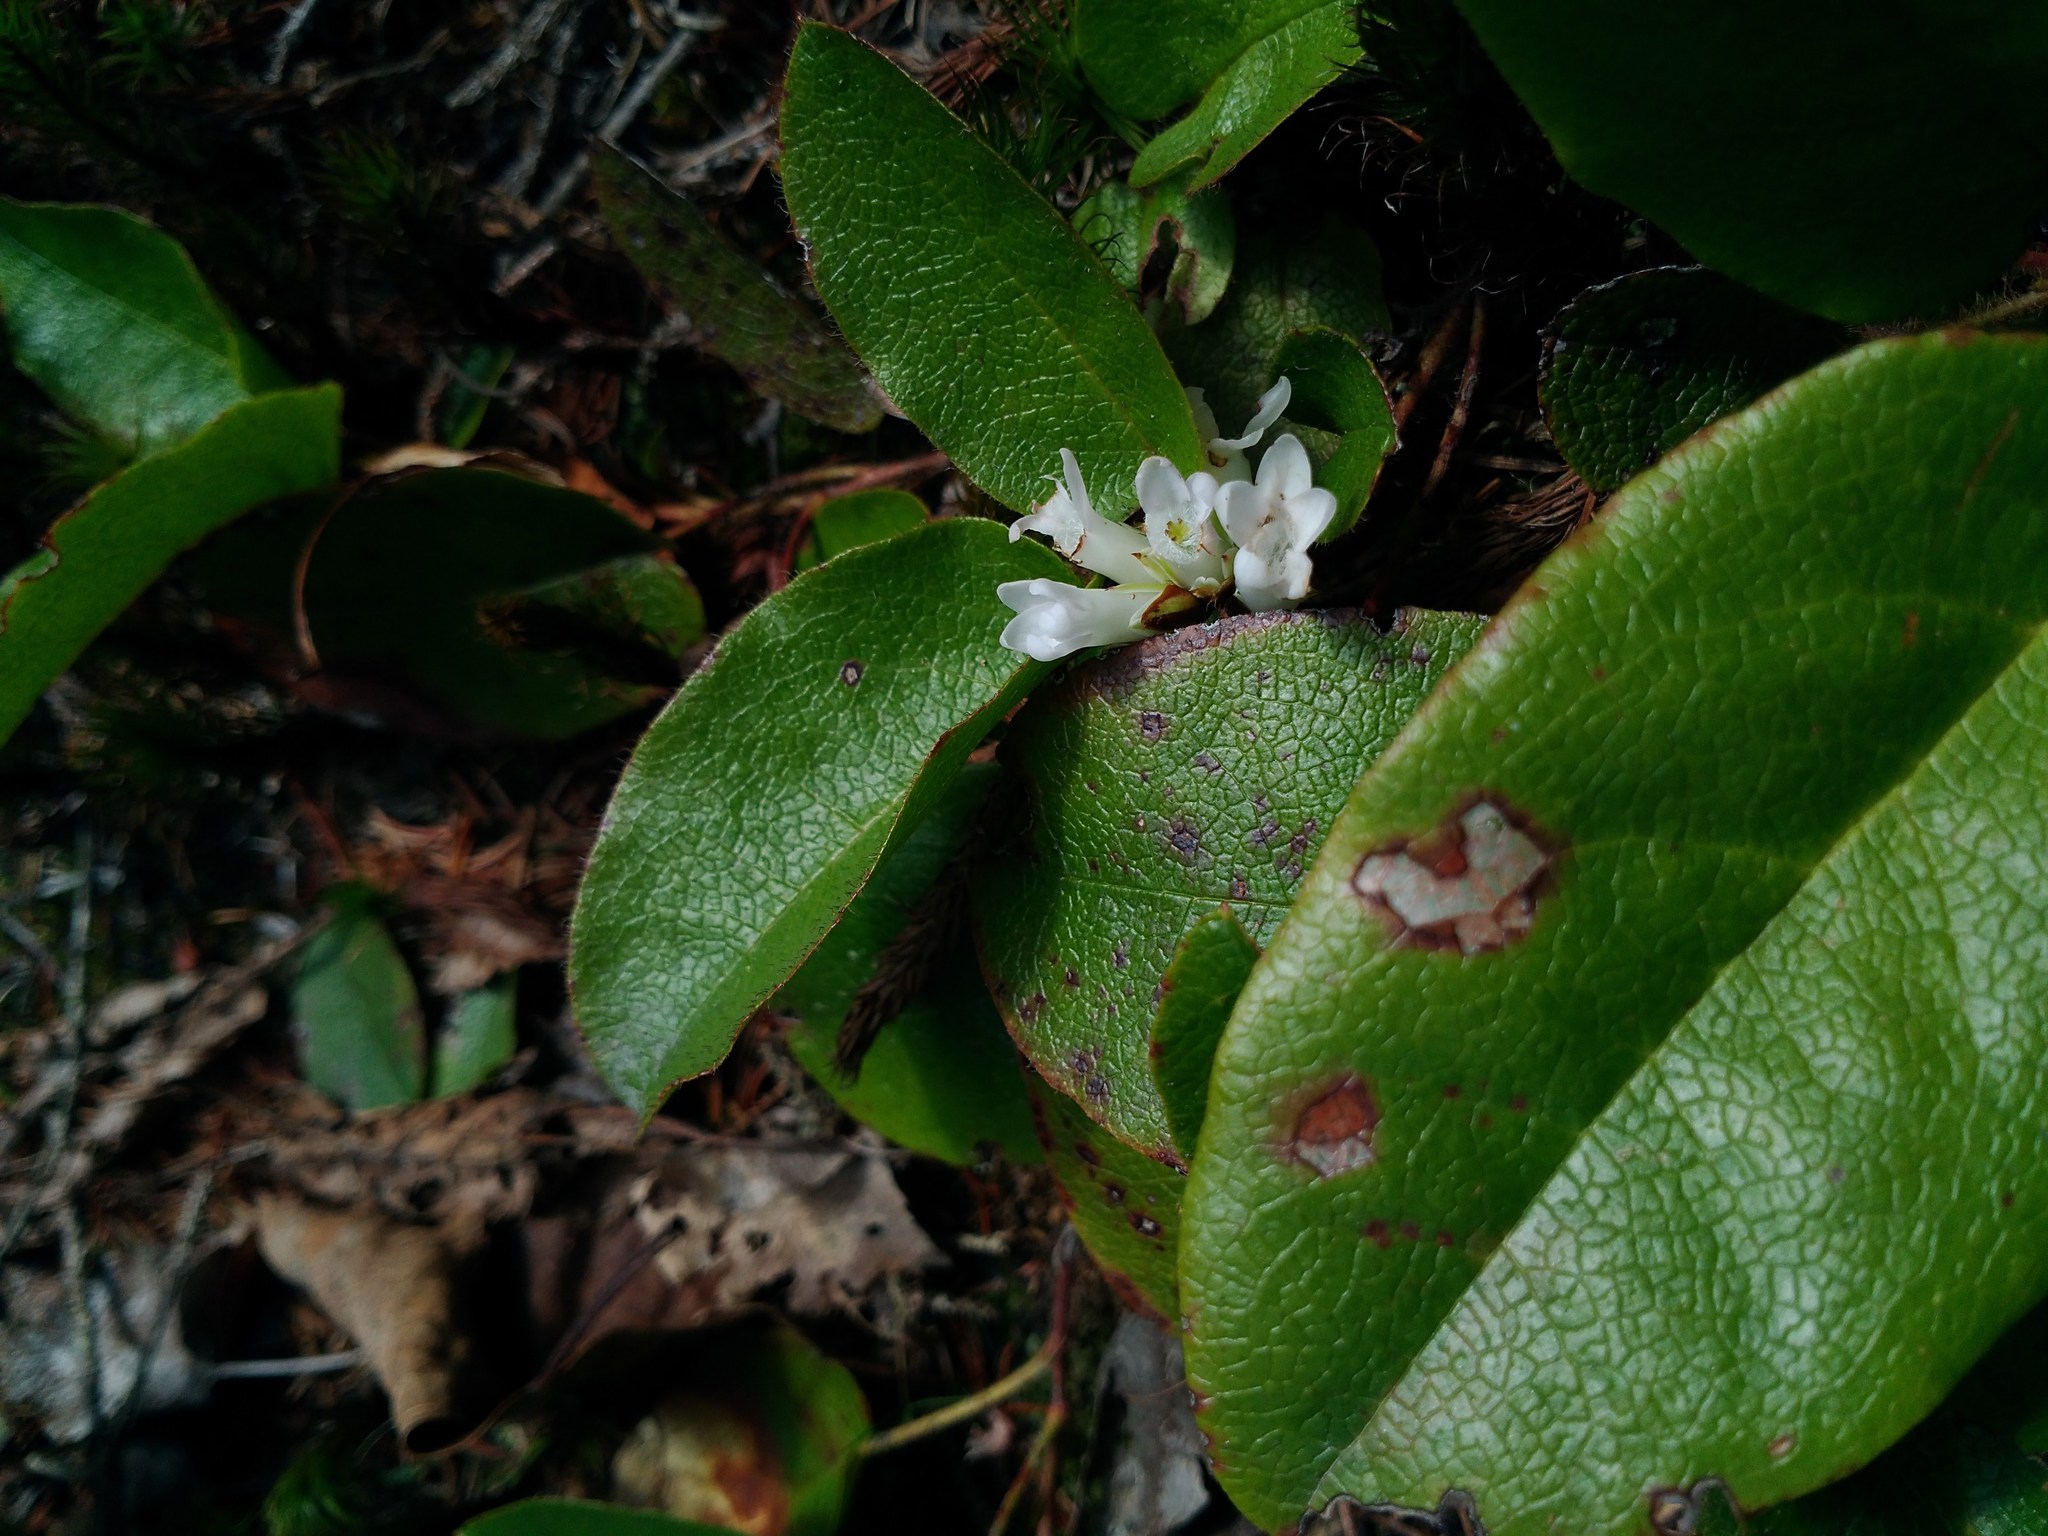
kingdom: Plantae
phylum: Tracheophyta
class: Magnoliopsida
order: Ericales
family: Ericaceae
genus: Epigaea
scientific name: Epigaea repens
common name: Gravelroot
